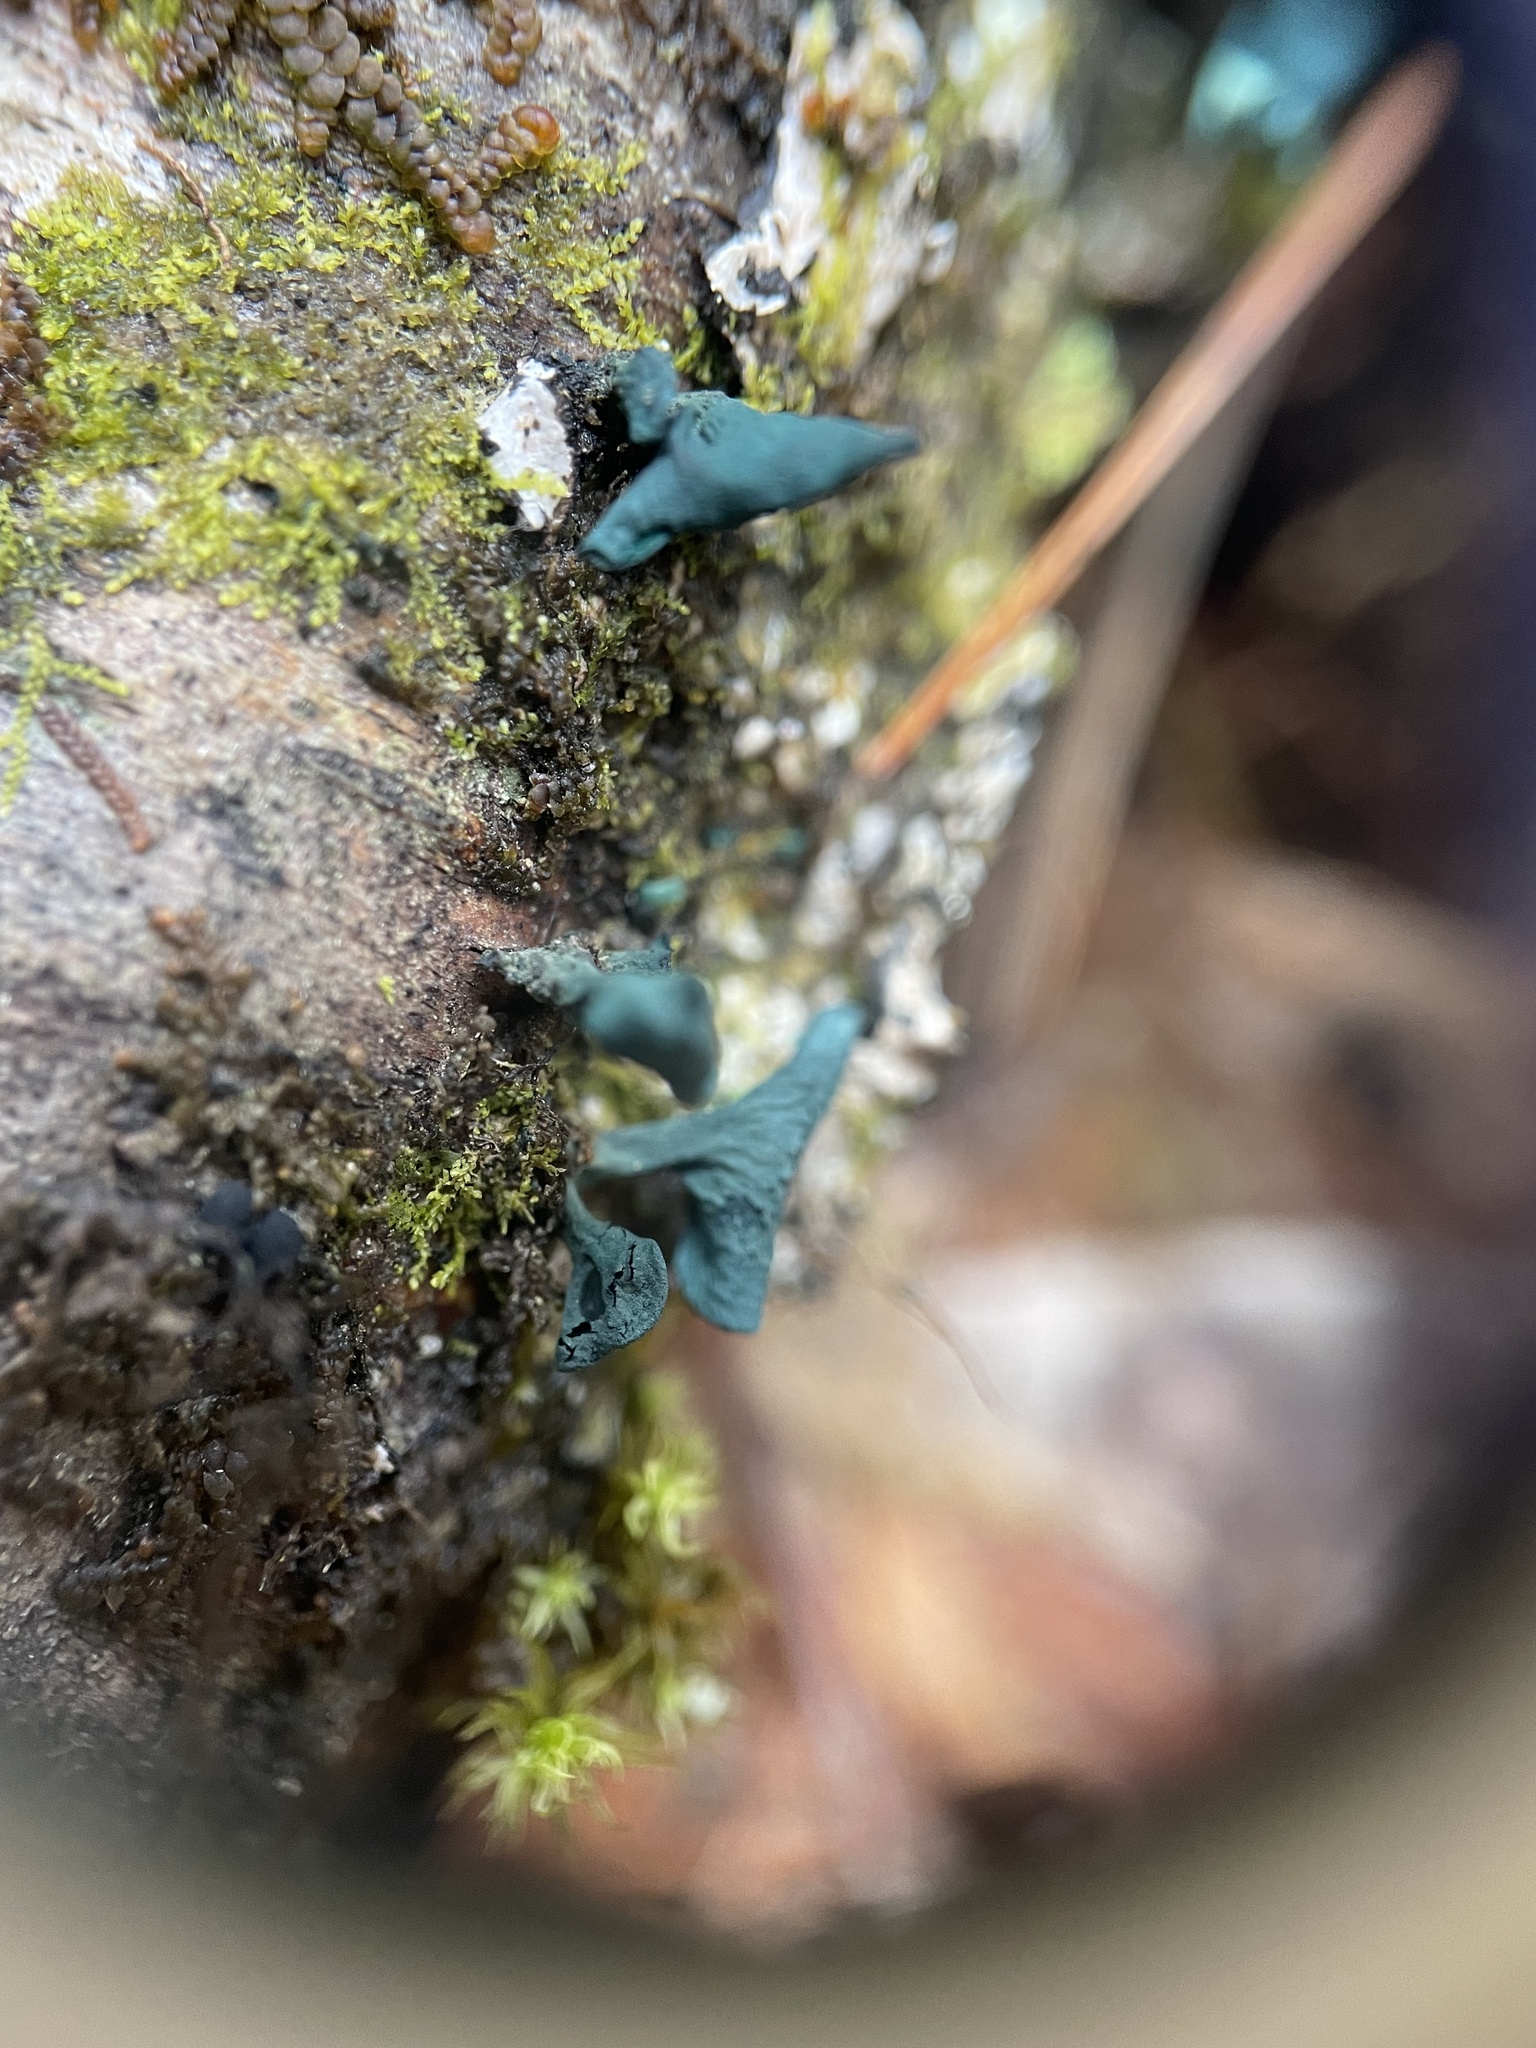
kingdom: Fungi
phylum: Ascomycota
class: Leotiomycetes
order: Helotiales
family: Chlorociboriaceae
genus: Chlorociboria
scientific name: Chlorociboria aeruginascens
